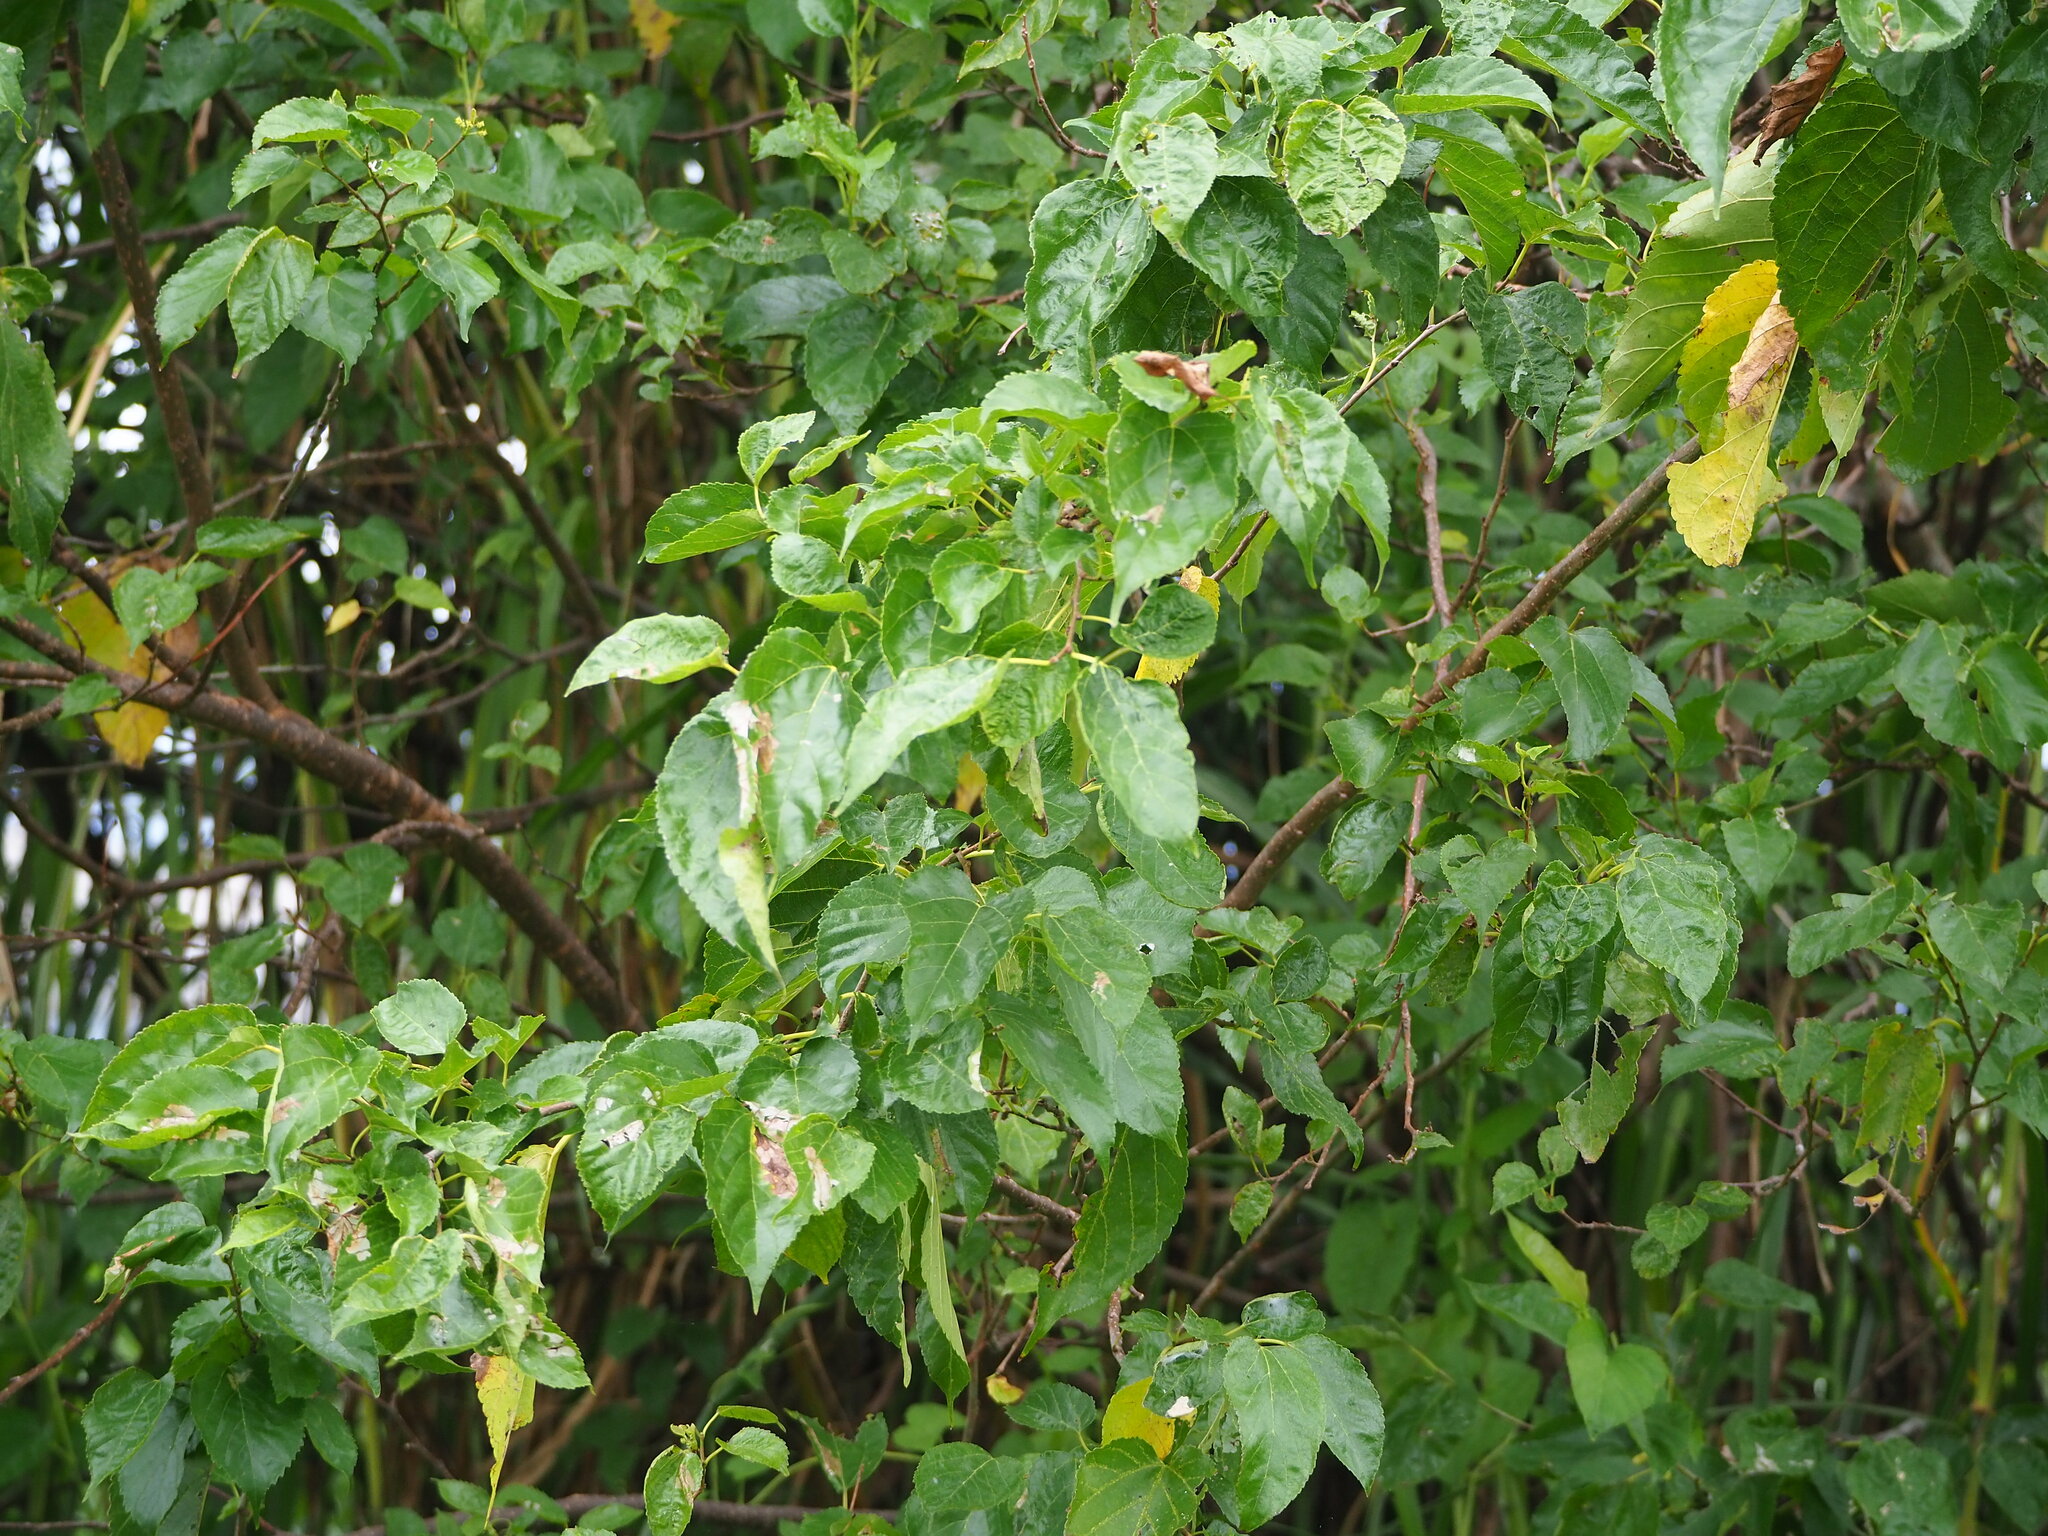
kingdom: Plantae
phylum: Tracheophyta
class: Magnoliopsida
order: Rosales
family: Moraceae
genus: Morus
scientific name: Morus indica
